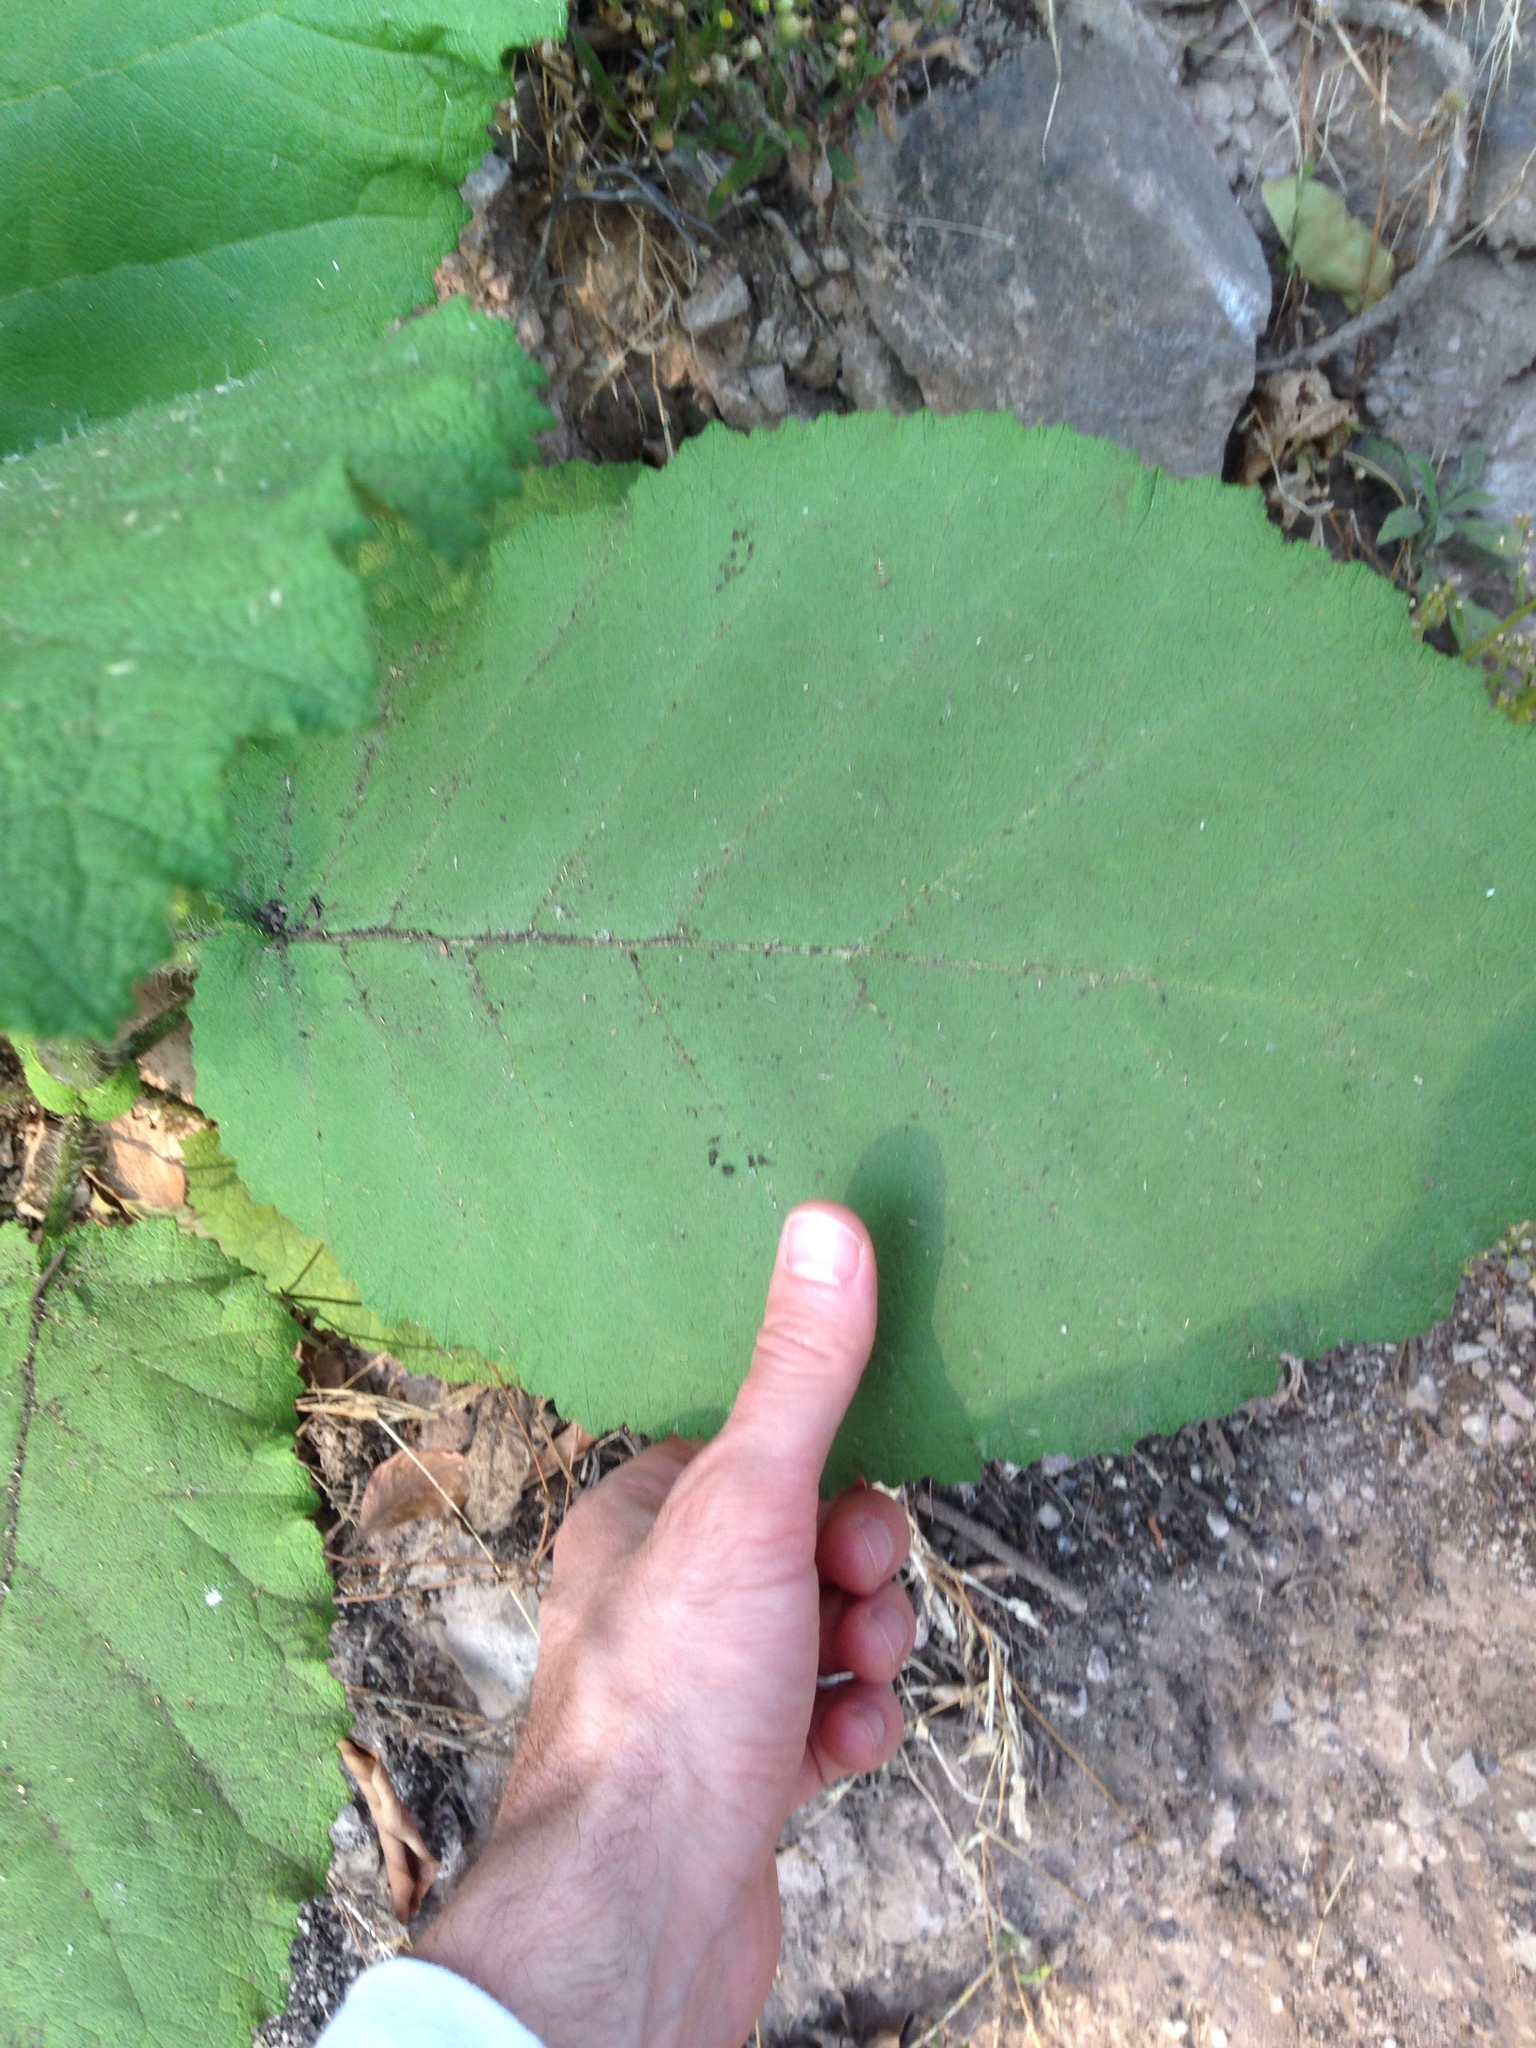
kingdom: Plantae
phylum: Tracheophyta
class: Magnoliopsida
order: Boraginales
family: Namaceae
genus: Wigandia
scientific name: Wigandia urens
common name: Caracus wigandia
